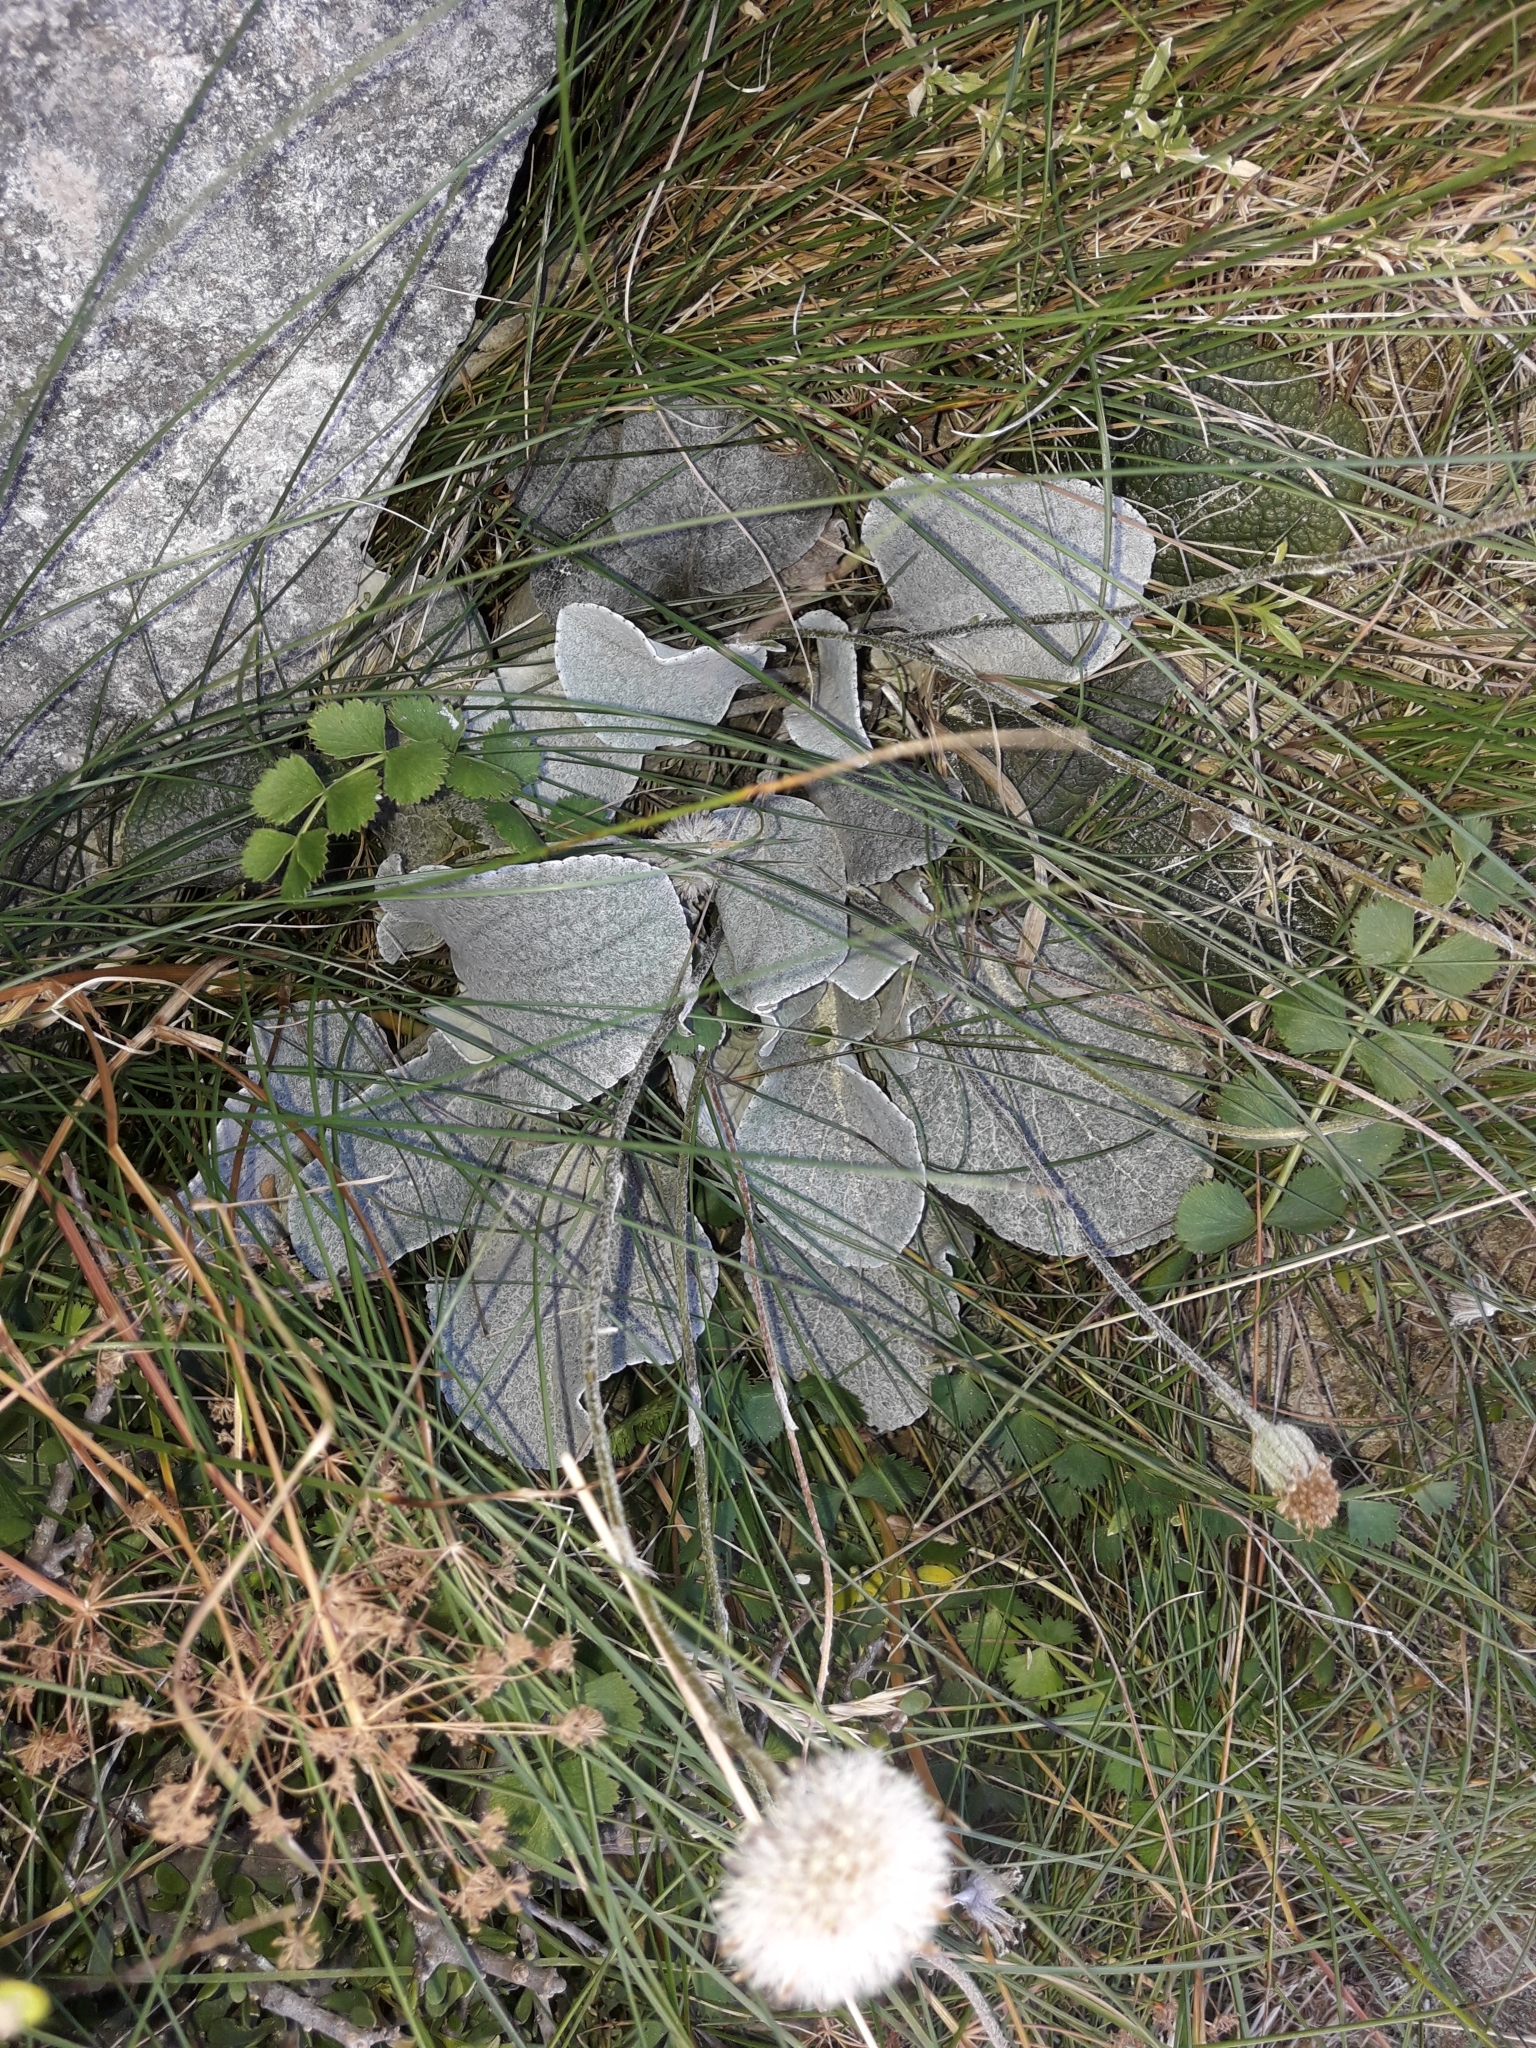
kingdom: Plantae
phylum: Tracheophyta
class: Magnoliopsida
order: Asterales
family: Asteraceae
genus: Brachyglottis
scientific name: Brachyglottis lagopus
